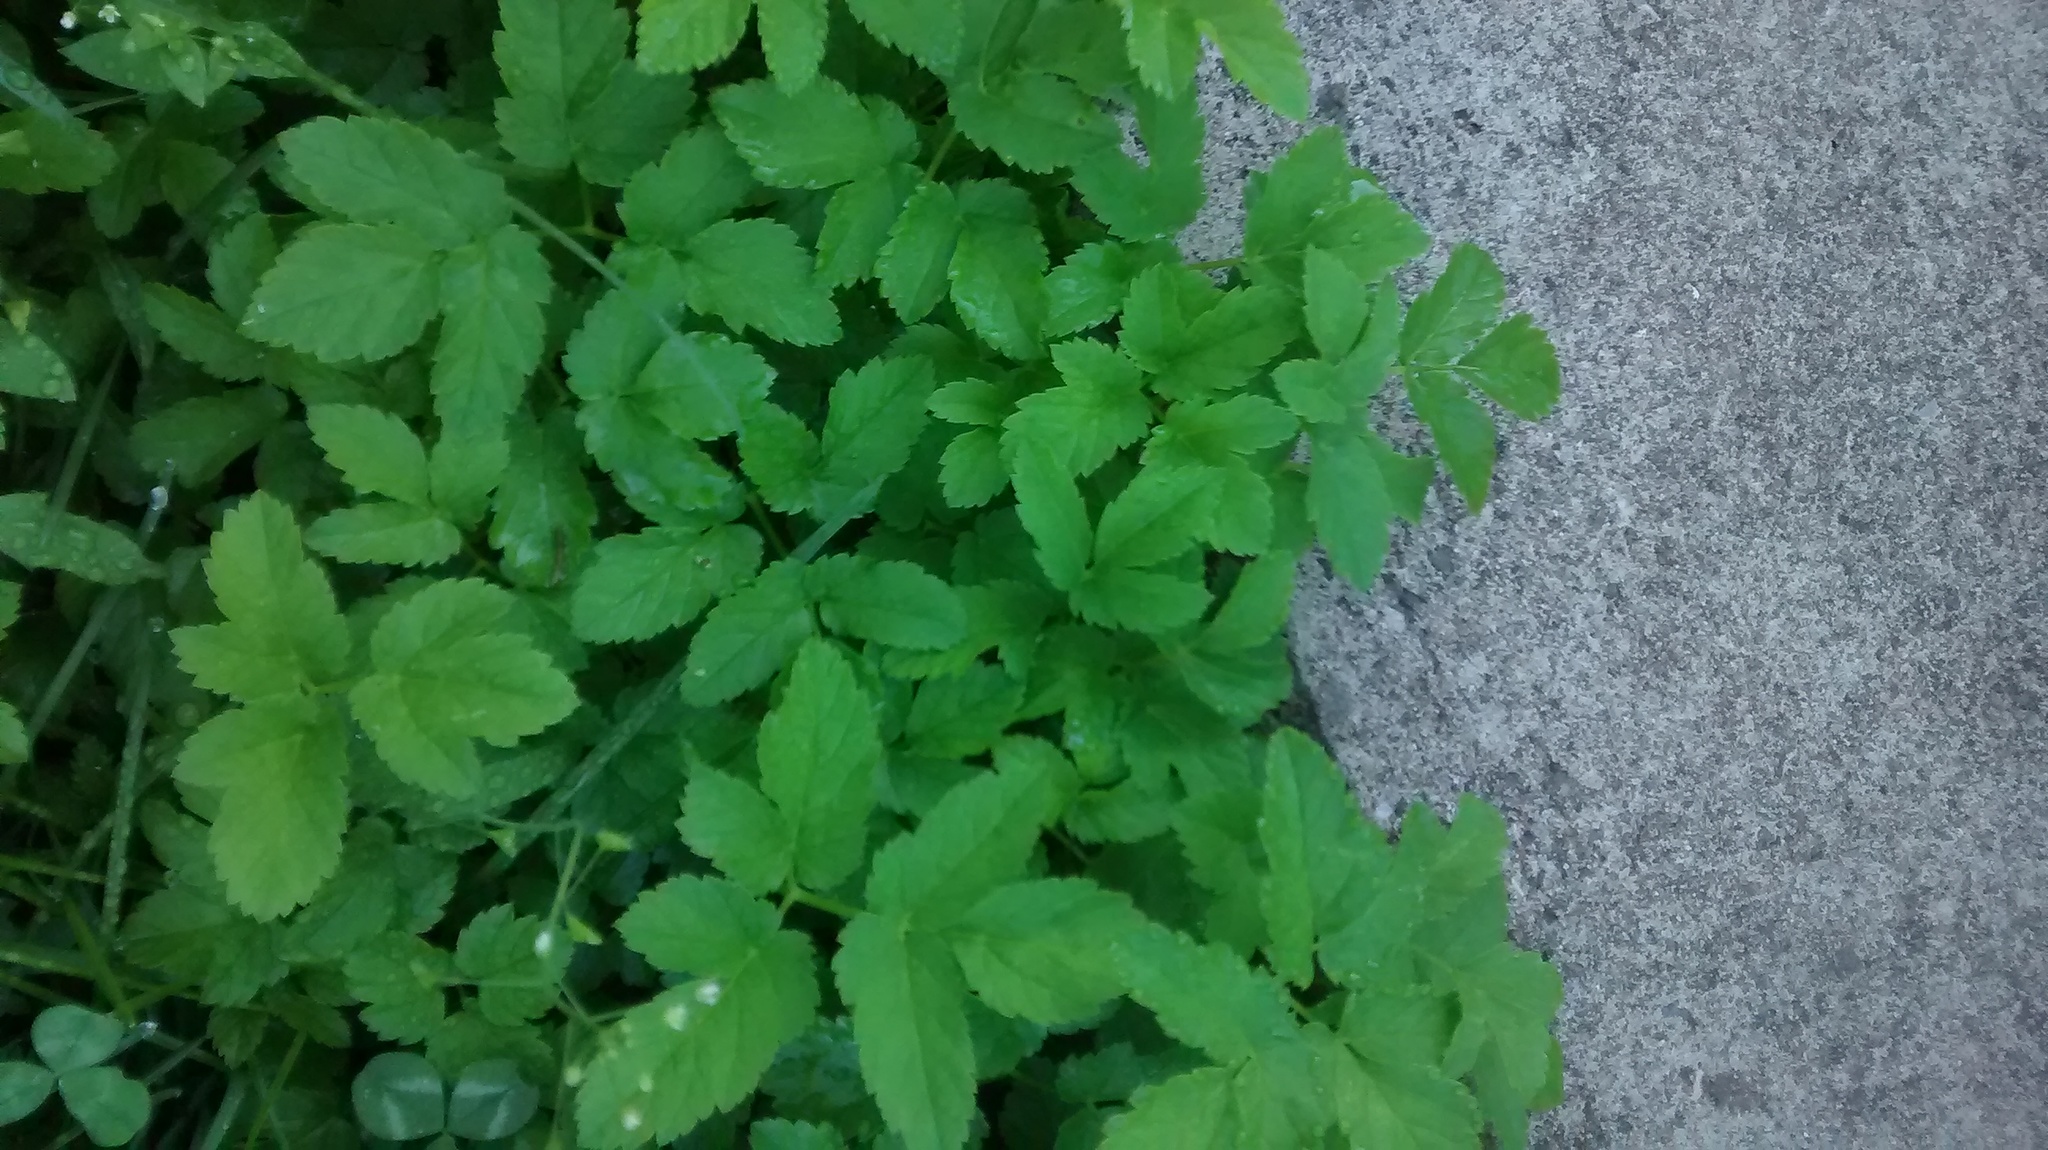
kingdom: Plantae
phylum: Tracheophyta
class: Magnoliopsida
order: Apiales
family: Apiaceae
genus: Aegopodium
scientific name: Aegopodium podagraria
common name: Ground-elder
